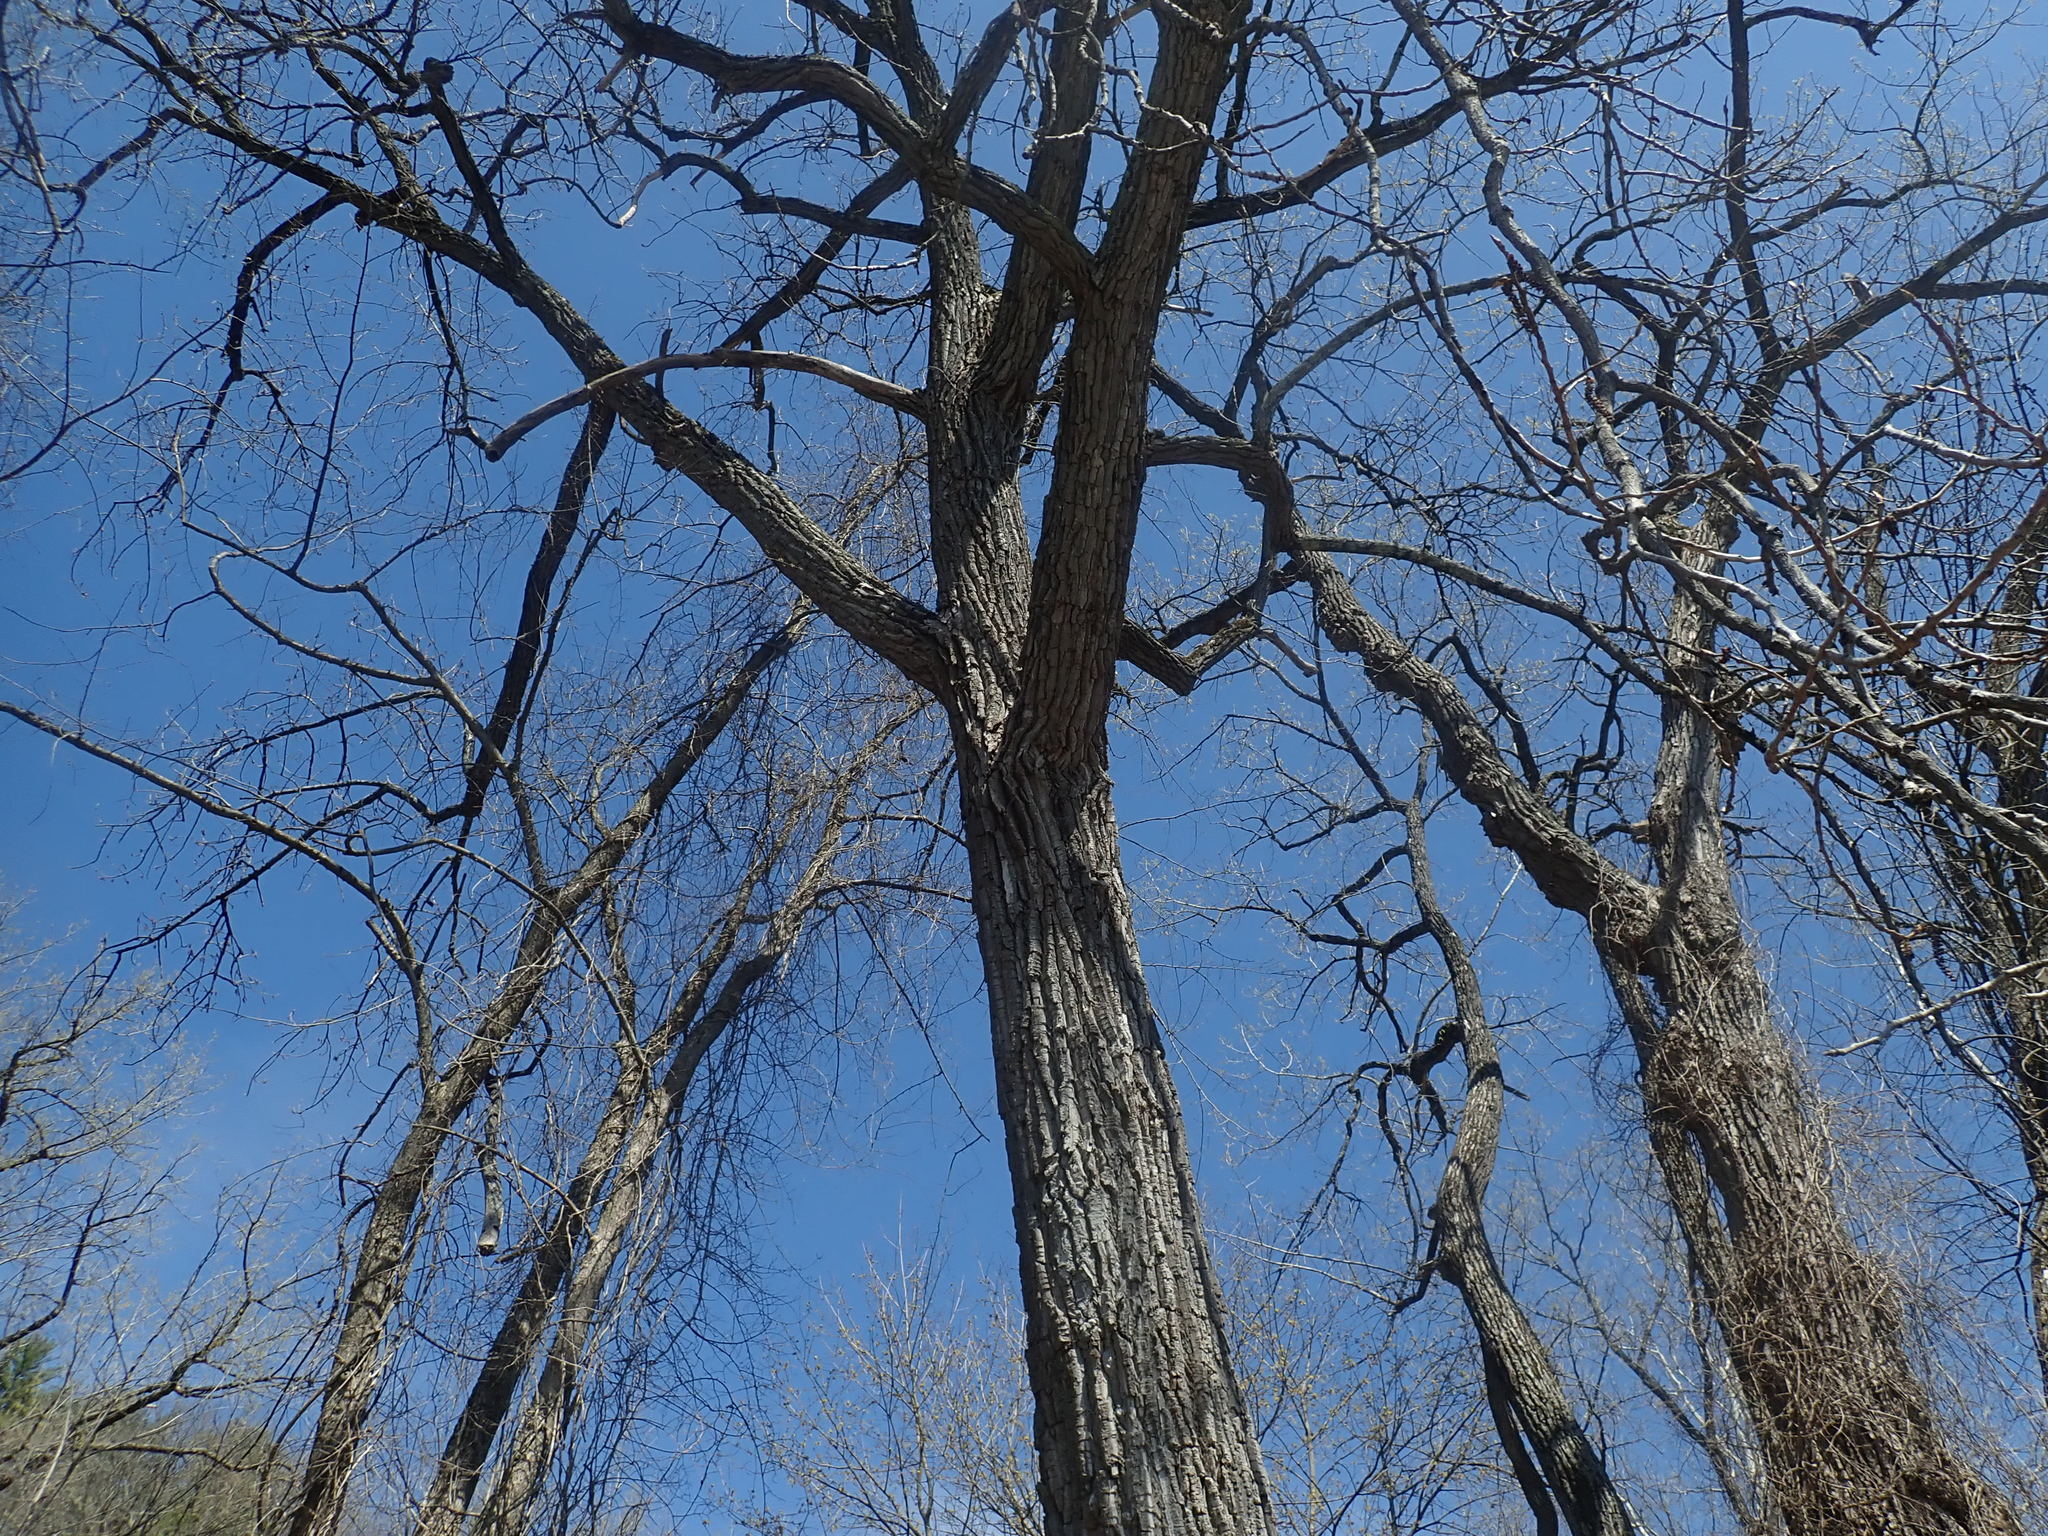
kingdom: Plantae
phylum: Tracheophyta
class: Magnoliopsida
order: Malpighiales
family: Salicaceae
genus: Populus
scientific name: Populus deltoides
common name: Eastern cottonwood
